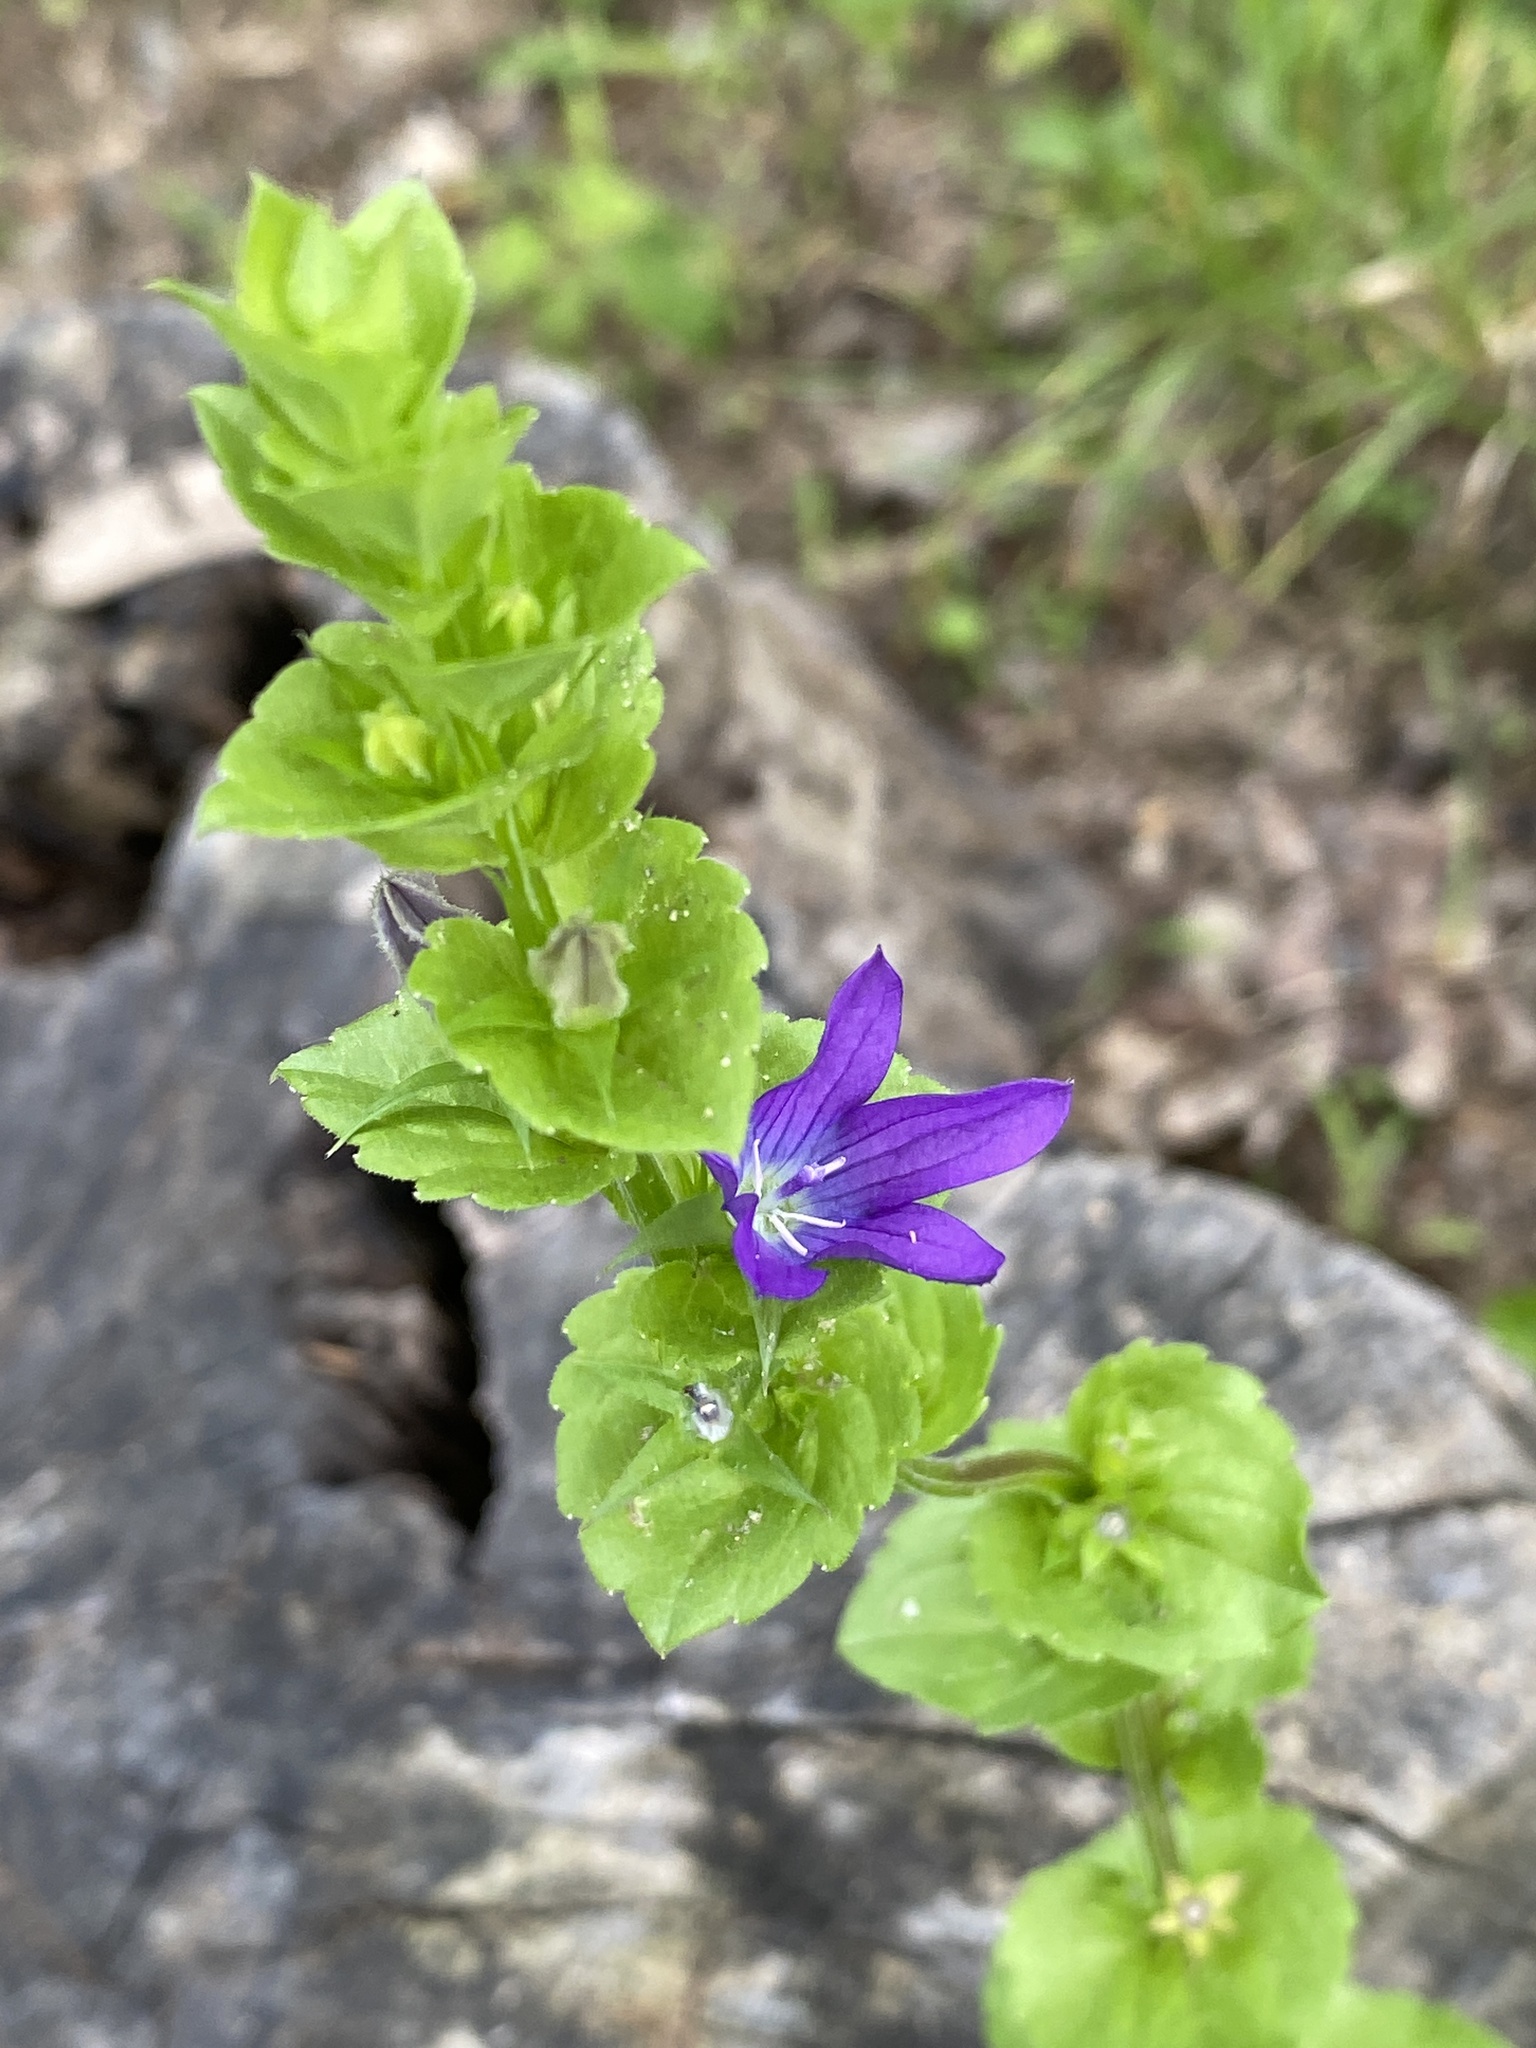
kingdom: Plantae
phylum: Tracheophyta
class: Magnoliopsida
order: Asterales
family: Campanulaceae
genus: Triodanis
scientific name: Triodanis perfoliata
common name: Clasping venus' looking-glass
